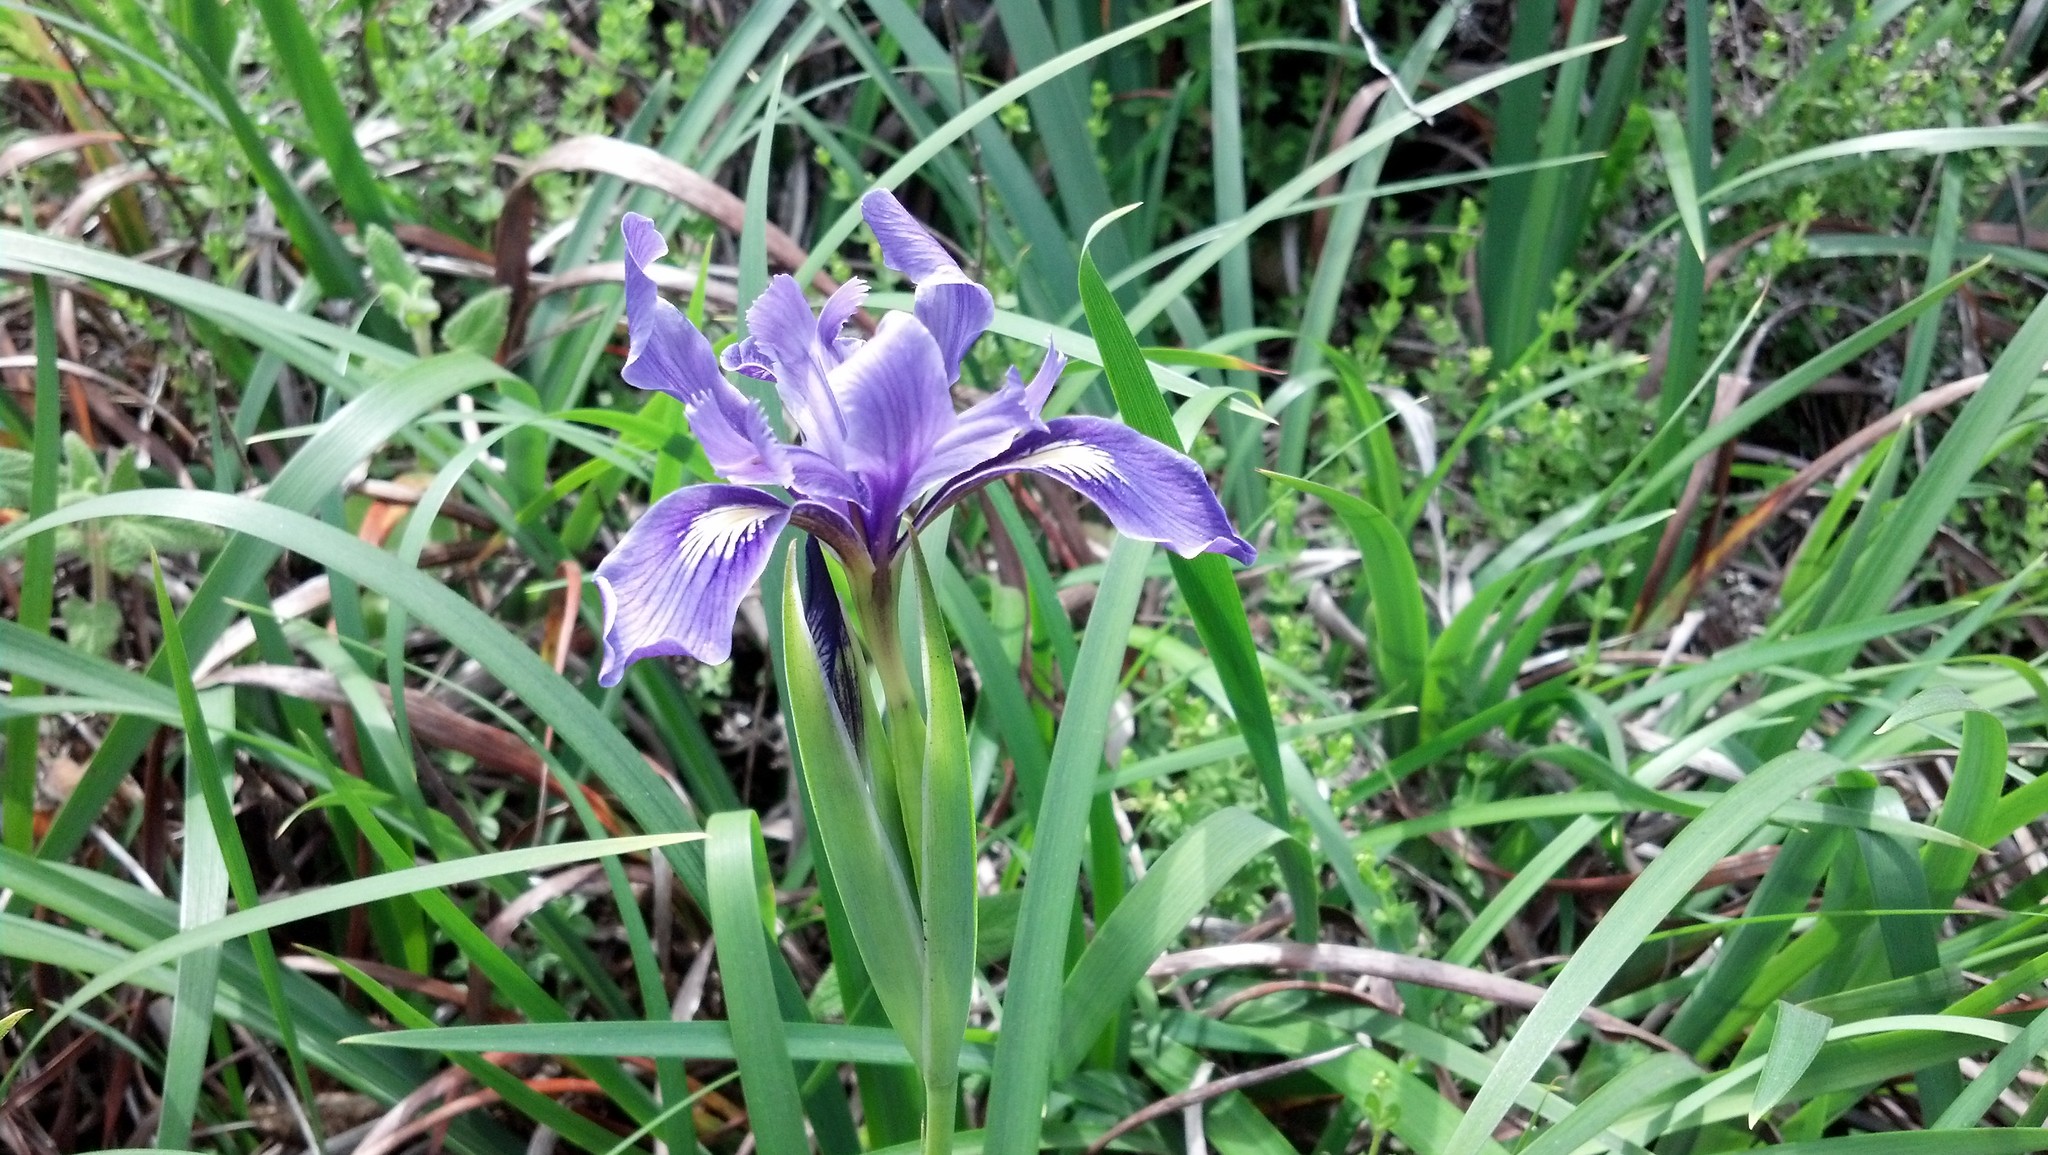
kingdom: Plantae
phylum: Tracheophyta
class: Liliopsida
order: Asparagales
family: Iridaceae
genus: Iris
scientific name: Iris douglasiana
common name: Marin iris
